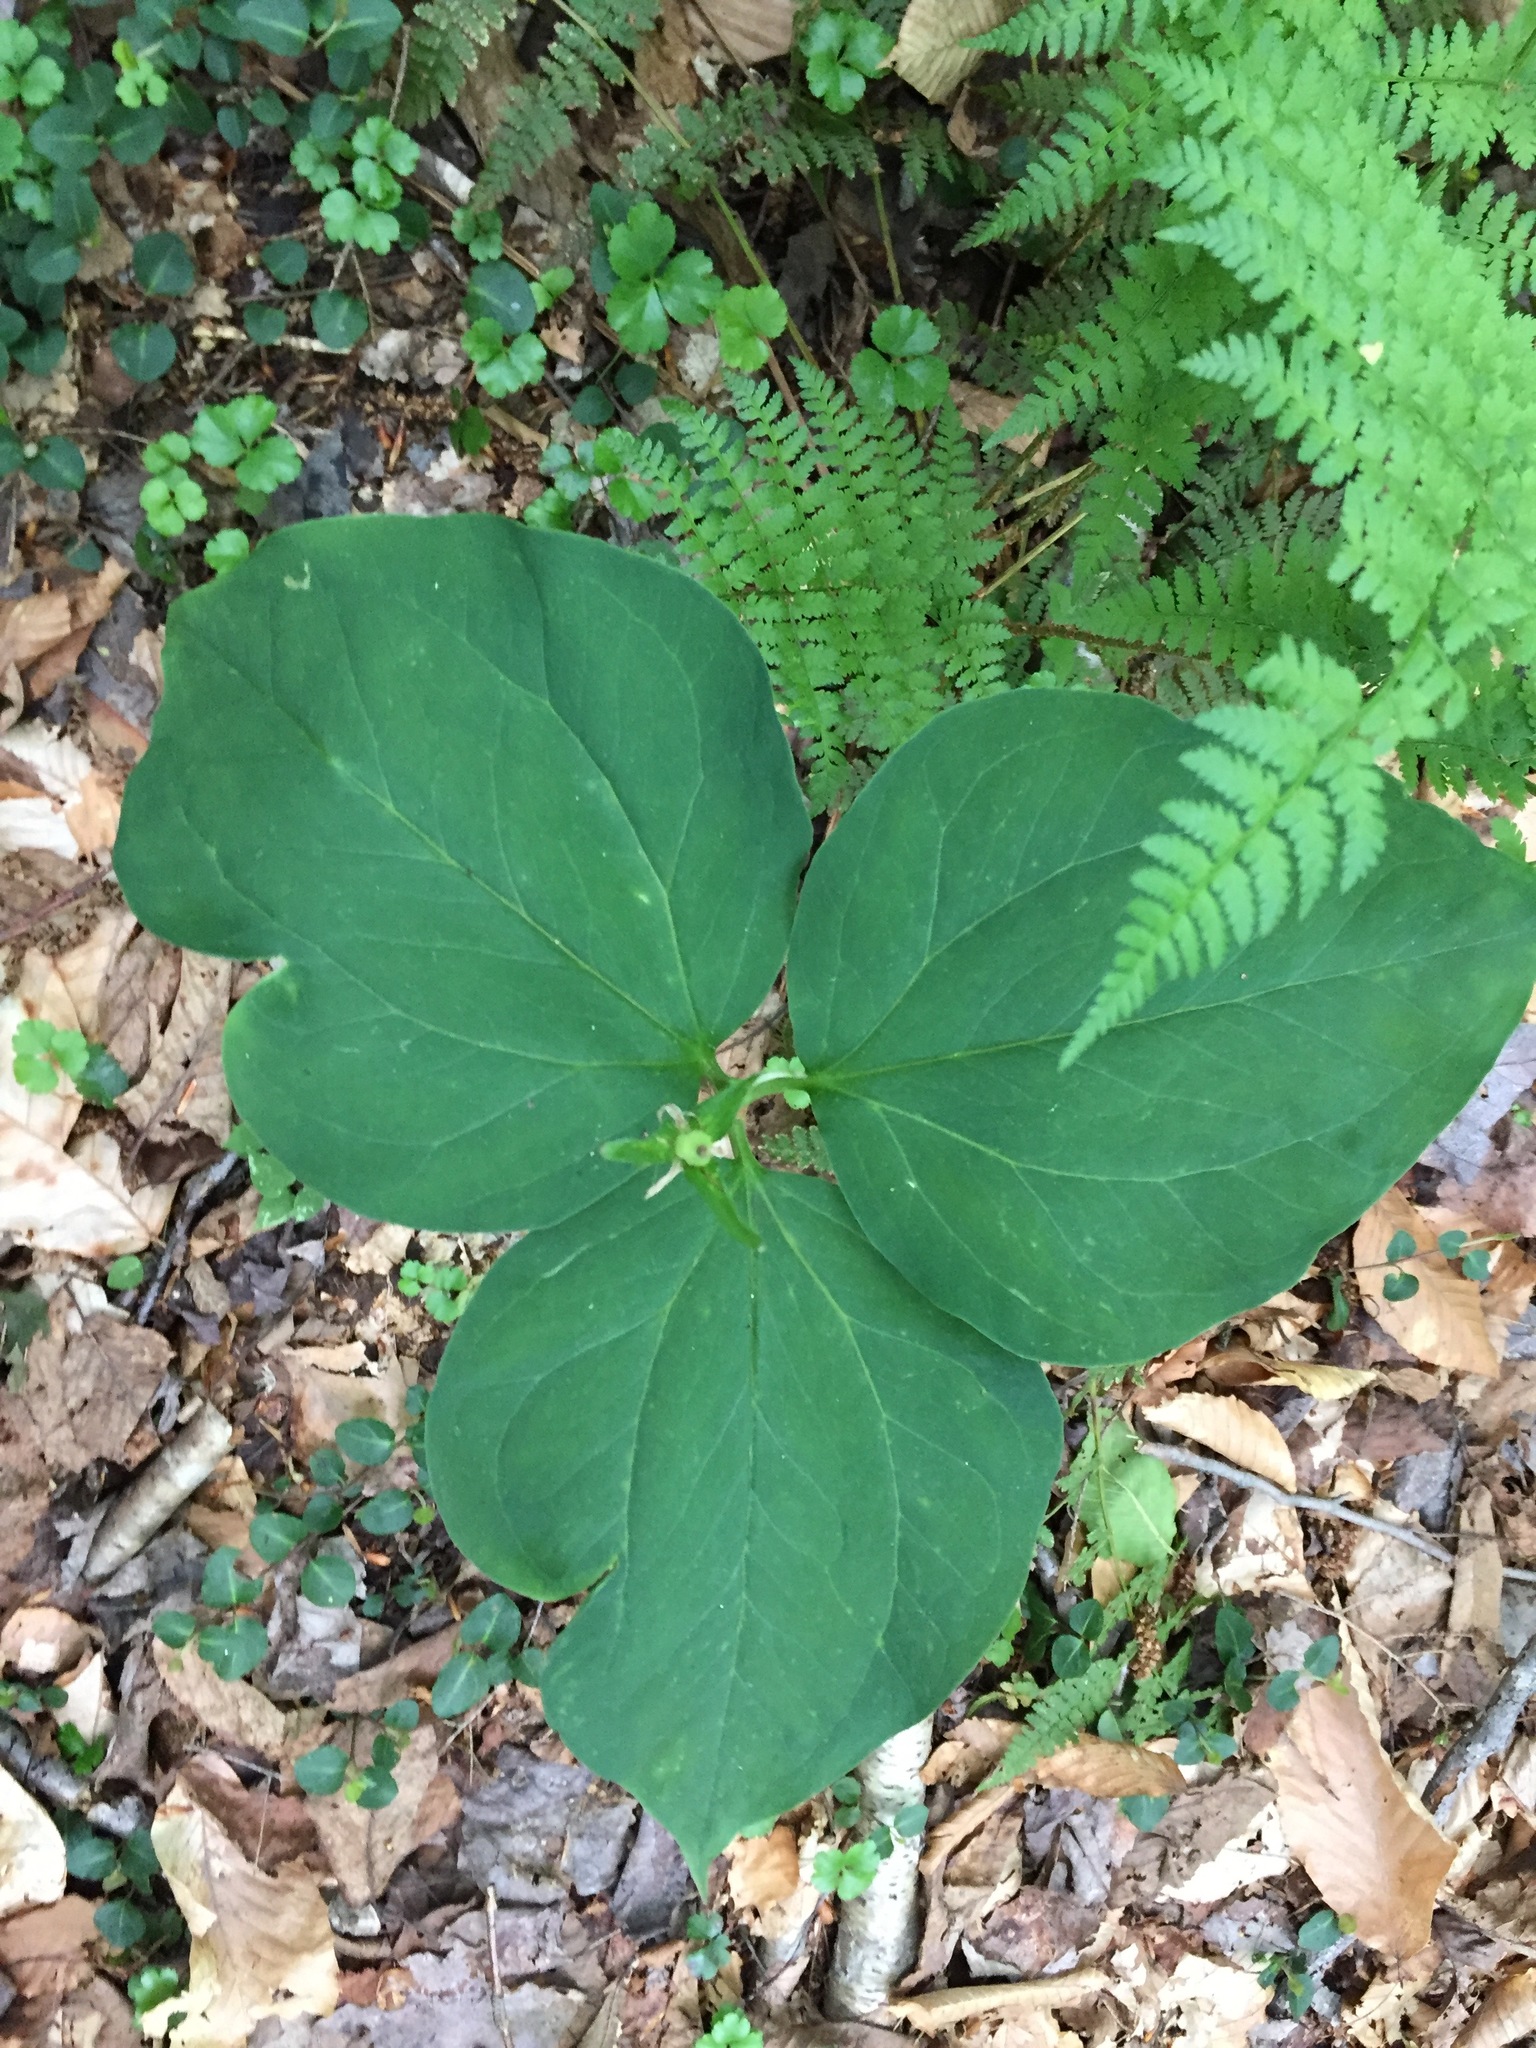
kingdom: Plantae
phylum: Tracheophyta
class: Liliopsida
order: Liliales
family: Melanthiaceae
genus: Trillium
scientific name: Trillium undulatum
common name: Paint trillium
